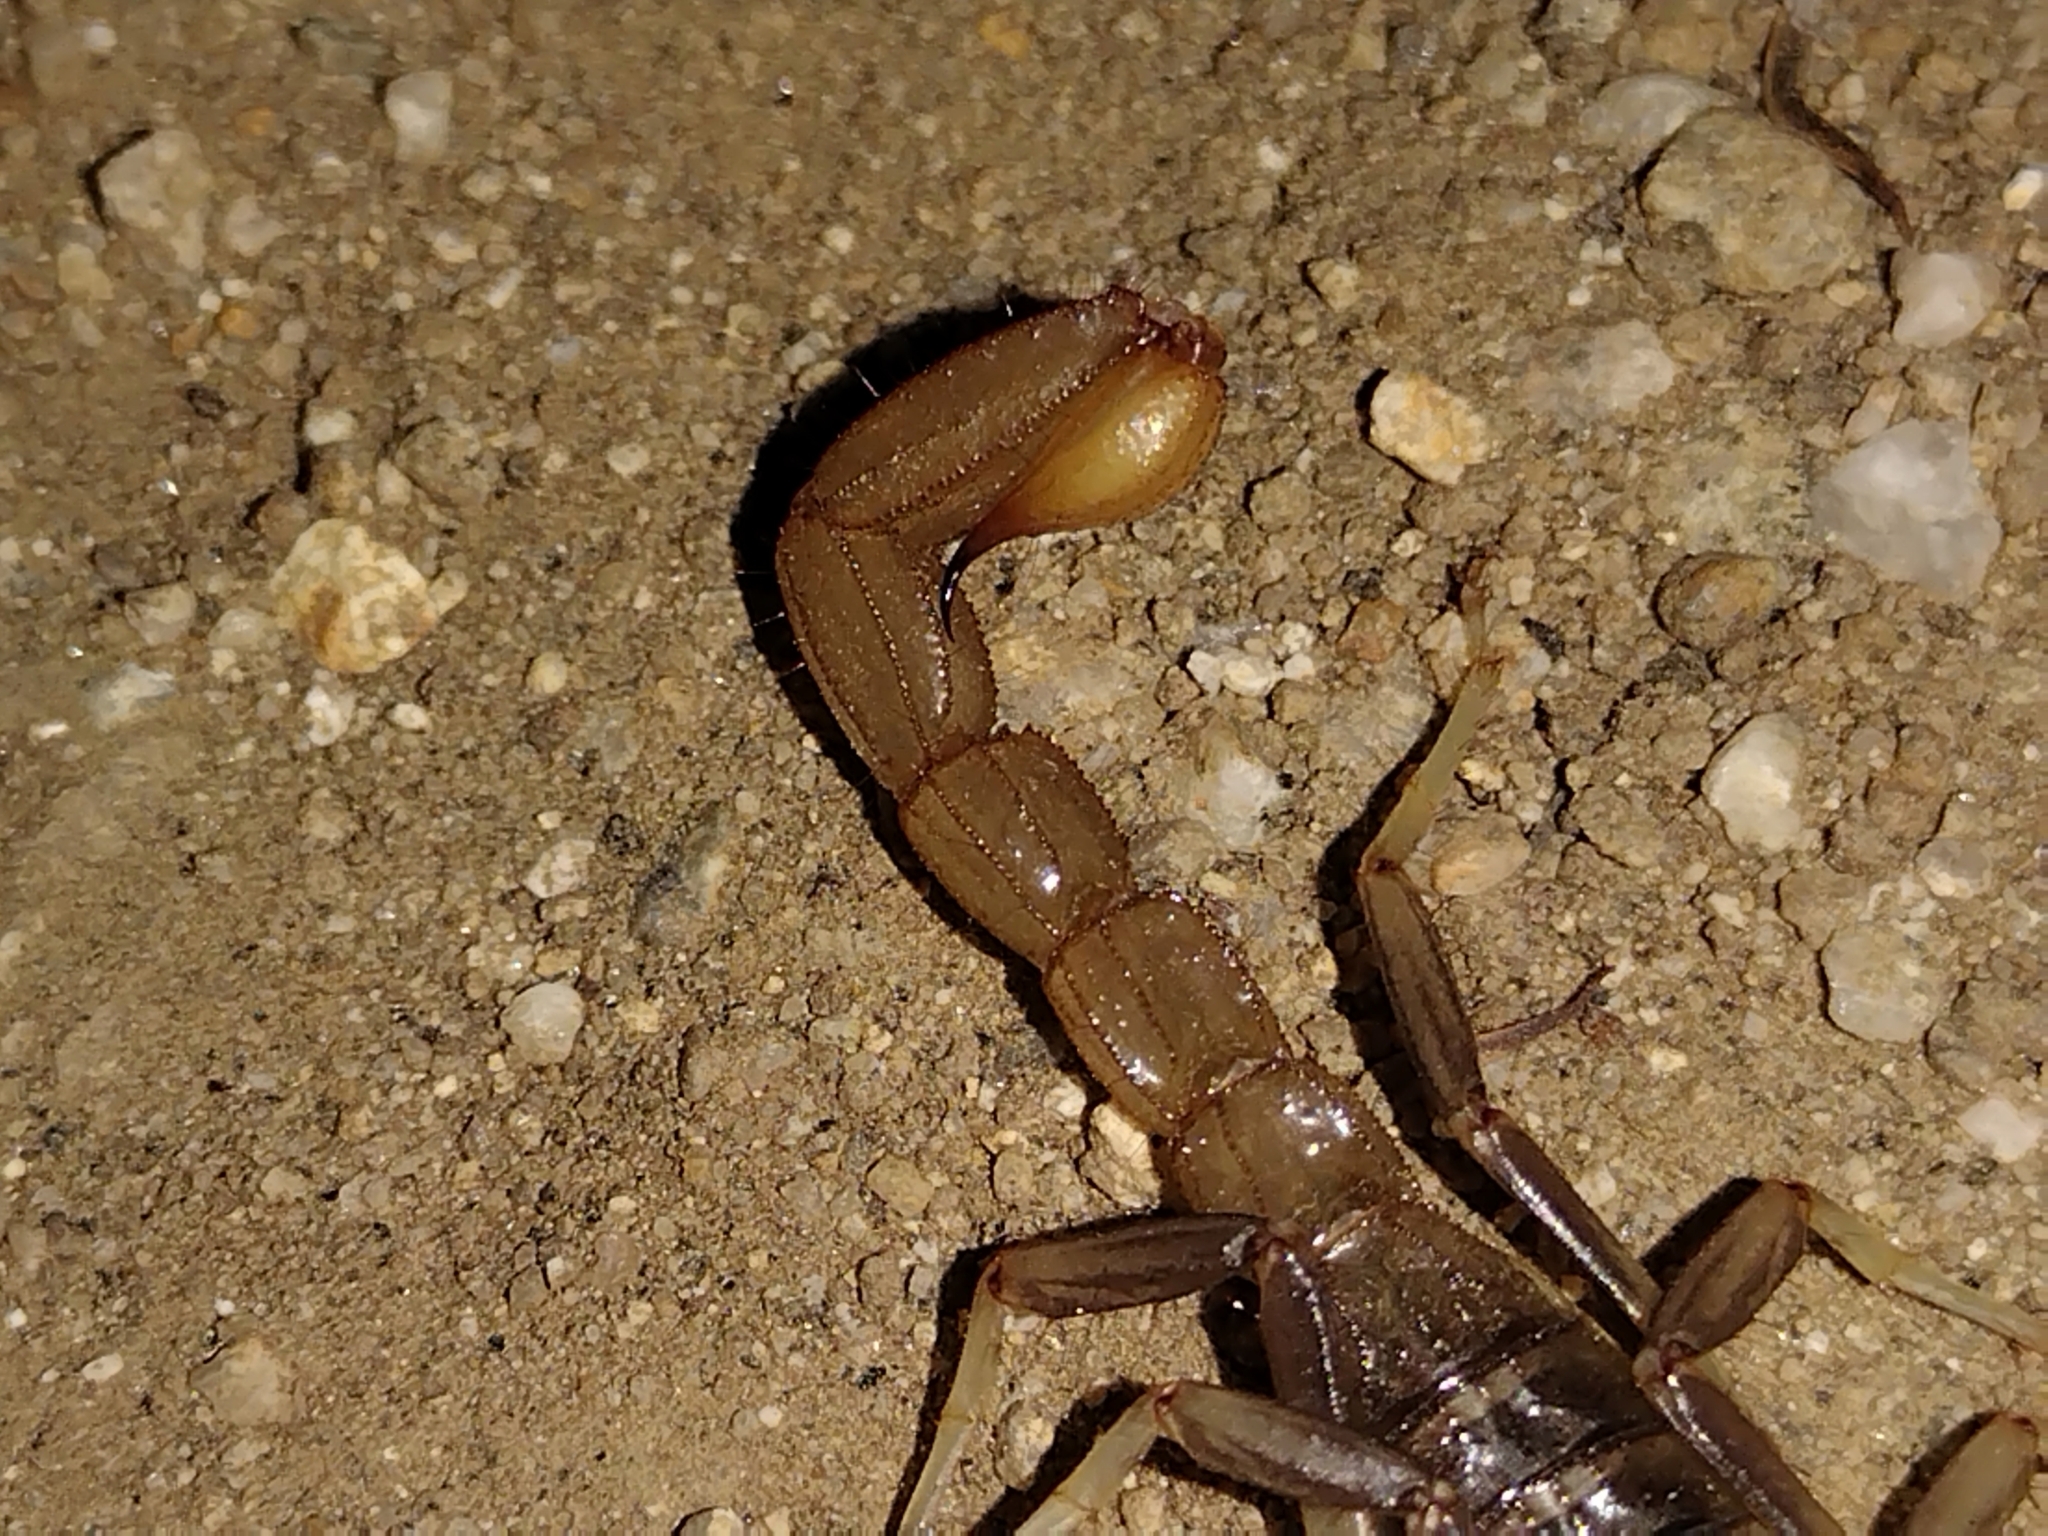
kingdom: Animalia
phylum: Arthropoda
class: Arachnida
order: Scorpiones
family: Vaejovidae
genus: Paravaejovis
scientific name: Paravaejovis puritanus
